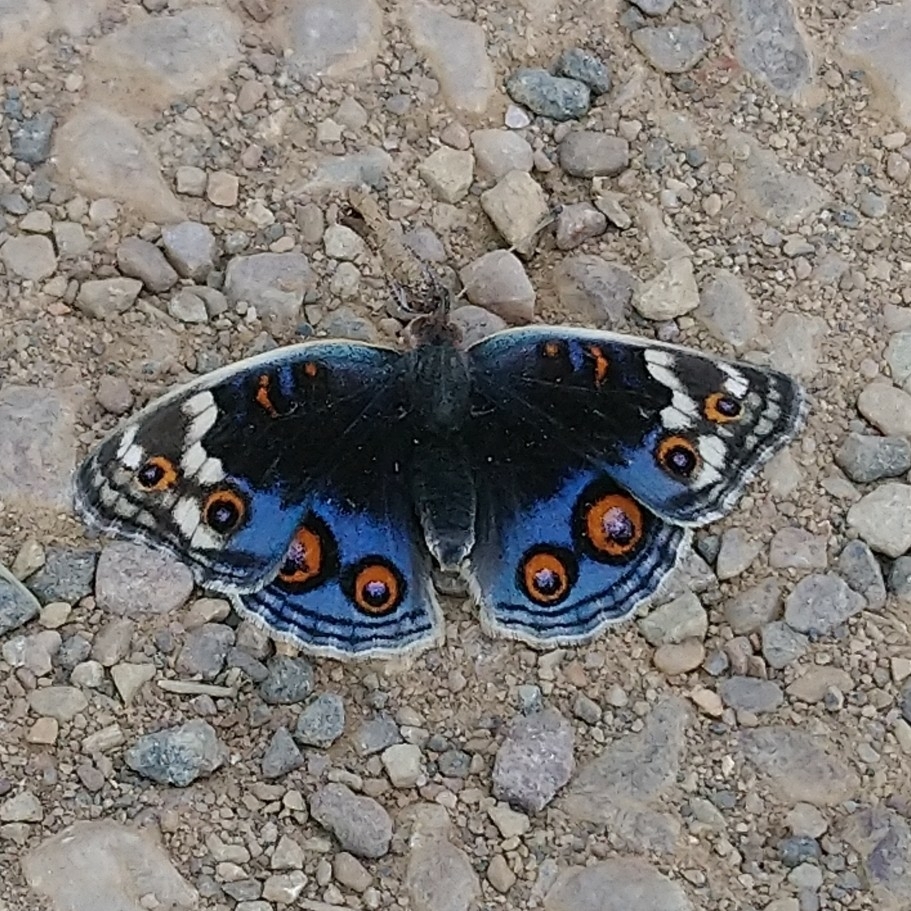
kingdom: Animalia
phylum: Arthropoda
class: Insecta
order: Lepidoptera
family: Nymphalidae
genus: Junonia
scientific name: Junonia orithya
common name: Blue pansy
